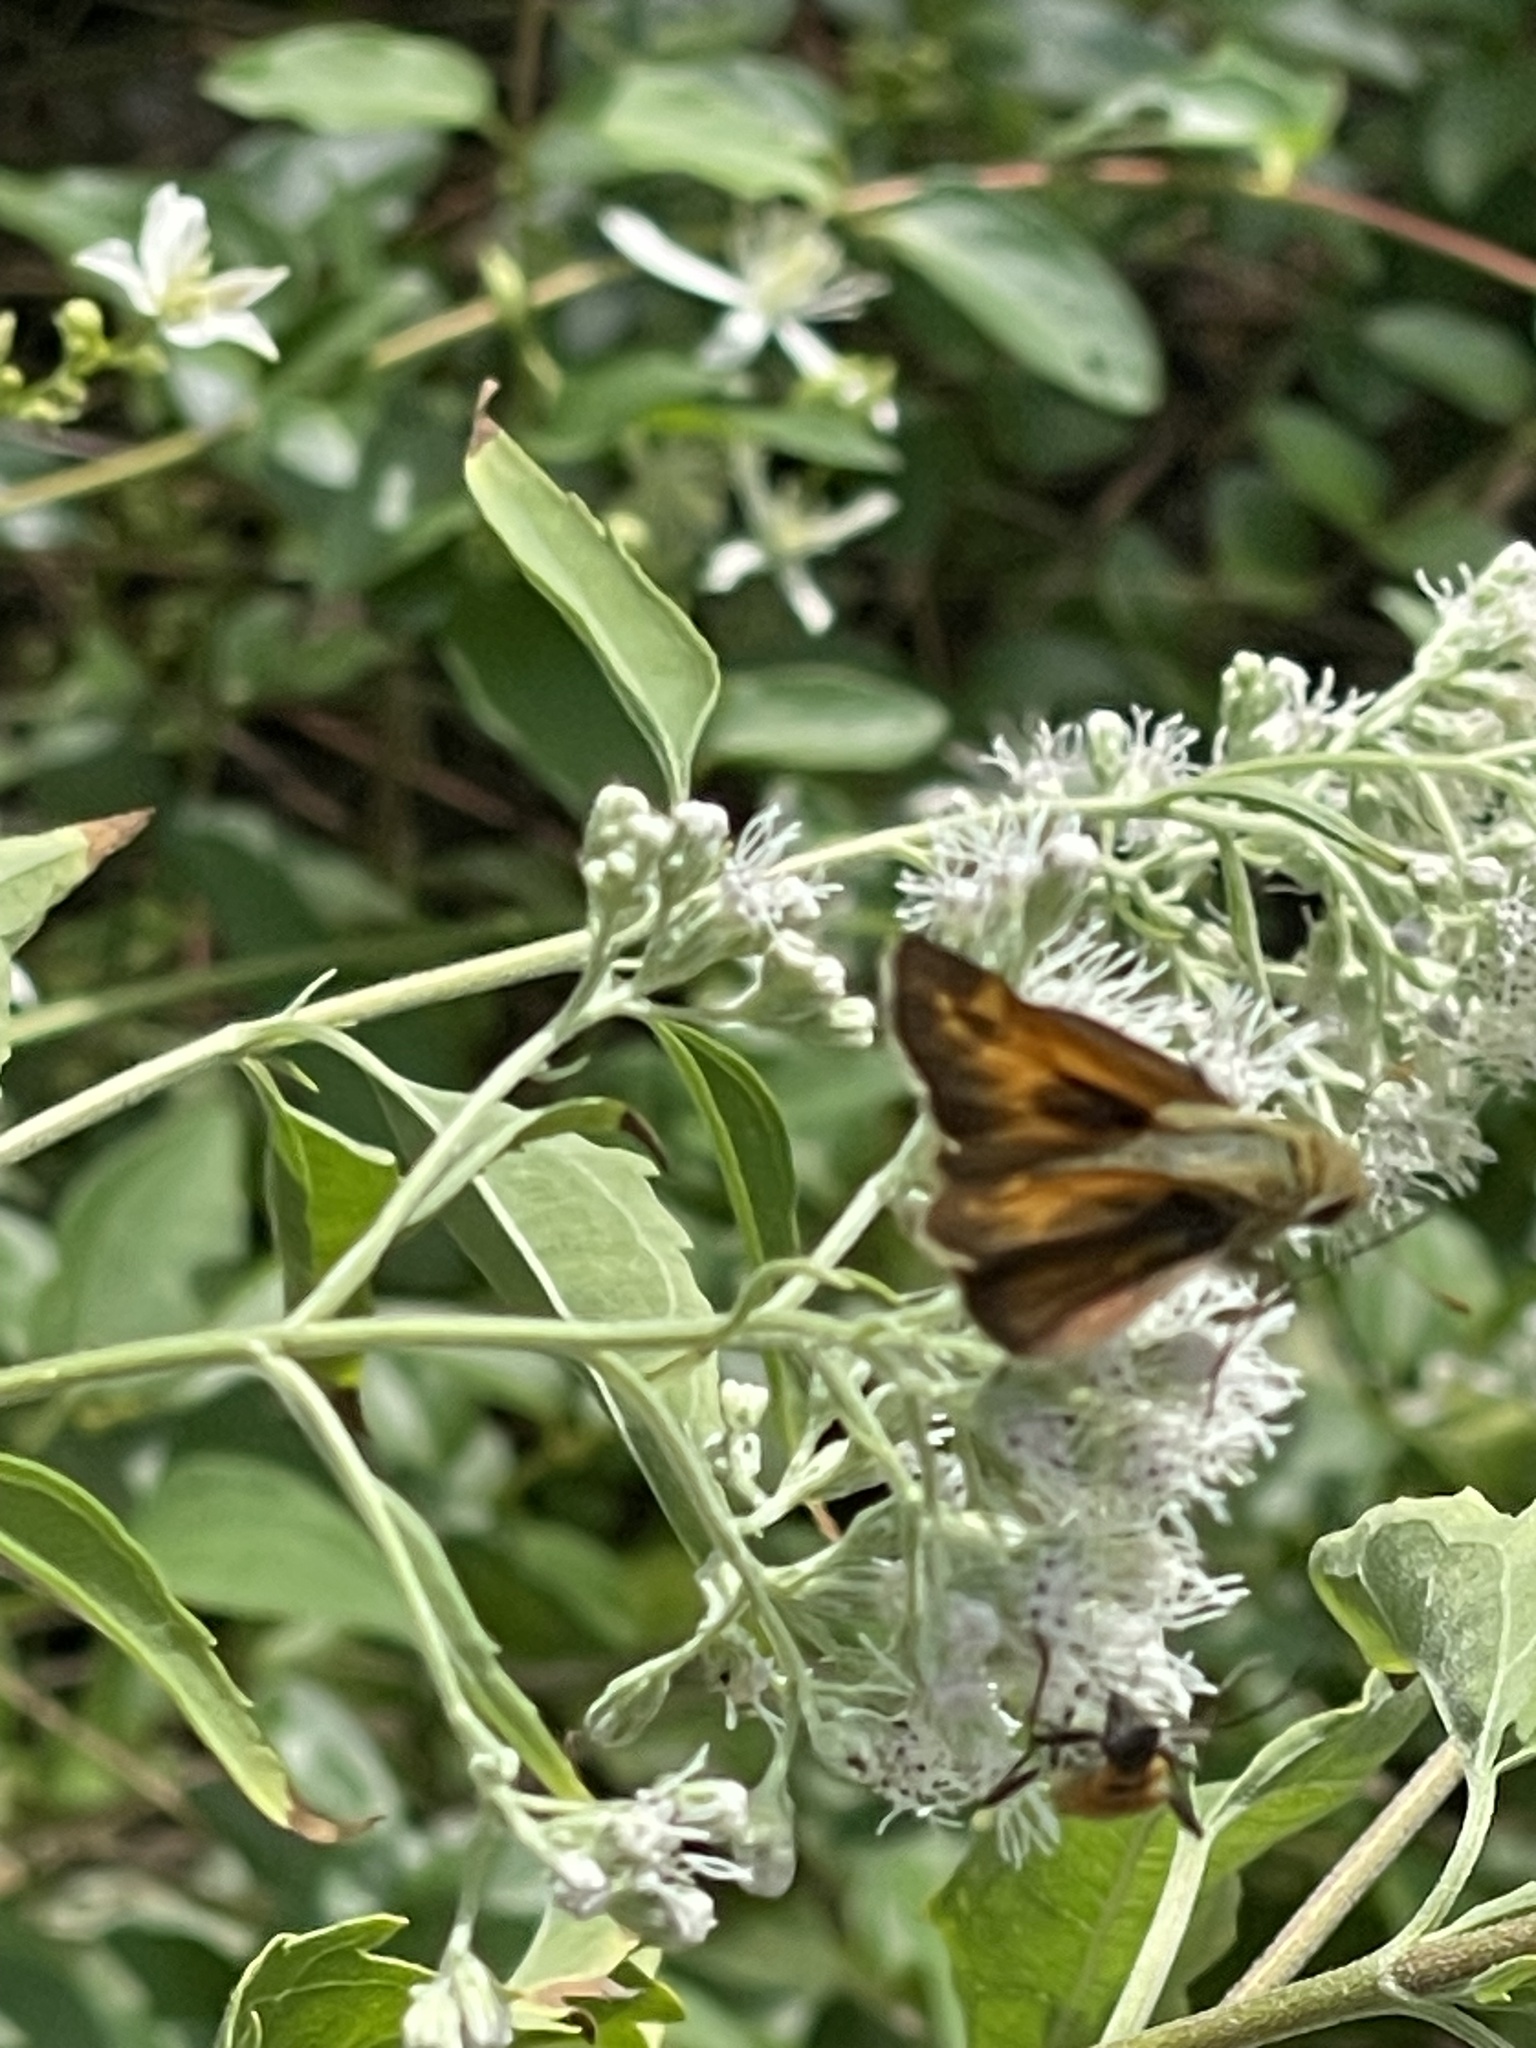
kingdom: Animalia
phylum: Arthropoda
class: Insecta
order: Lepidoptera
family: Hesperiidae
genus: Atalopedes
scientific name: Atalopedes
